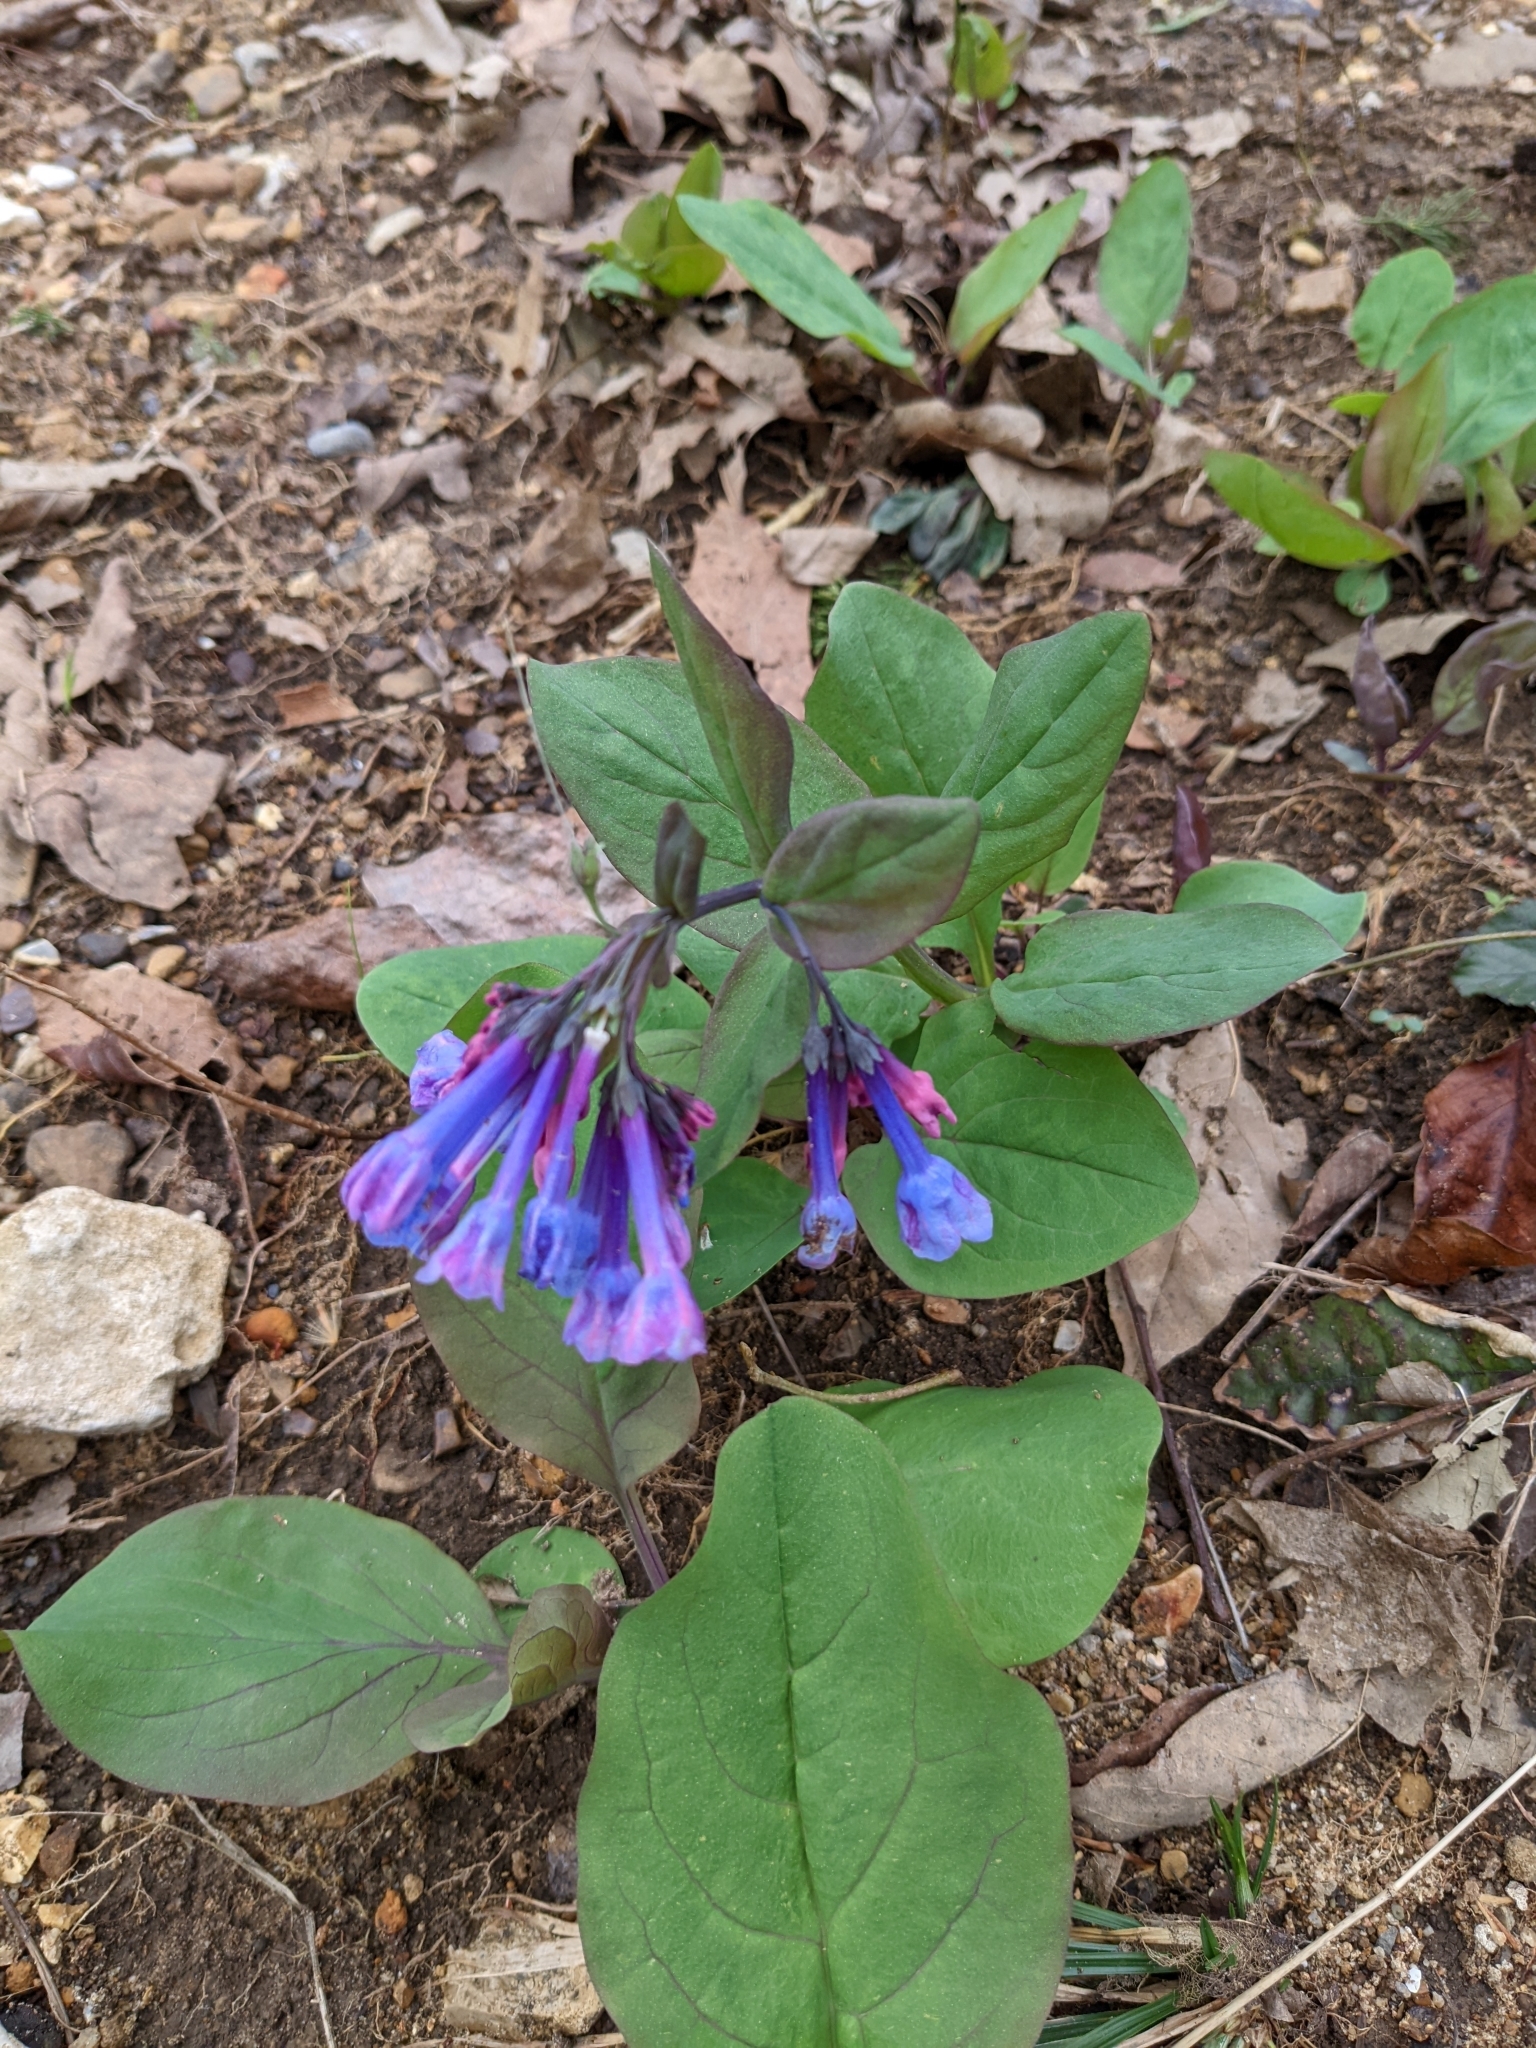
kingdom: Plantae
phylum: Tracheophyta
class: Magnoliopsida
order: Boraginales
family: Boraginaceae
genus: Mertensia
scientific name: Mertensia virginica
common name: Virginia bluebells
